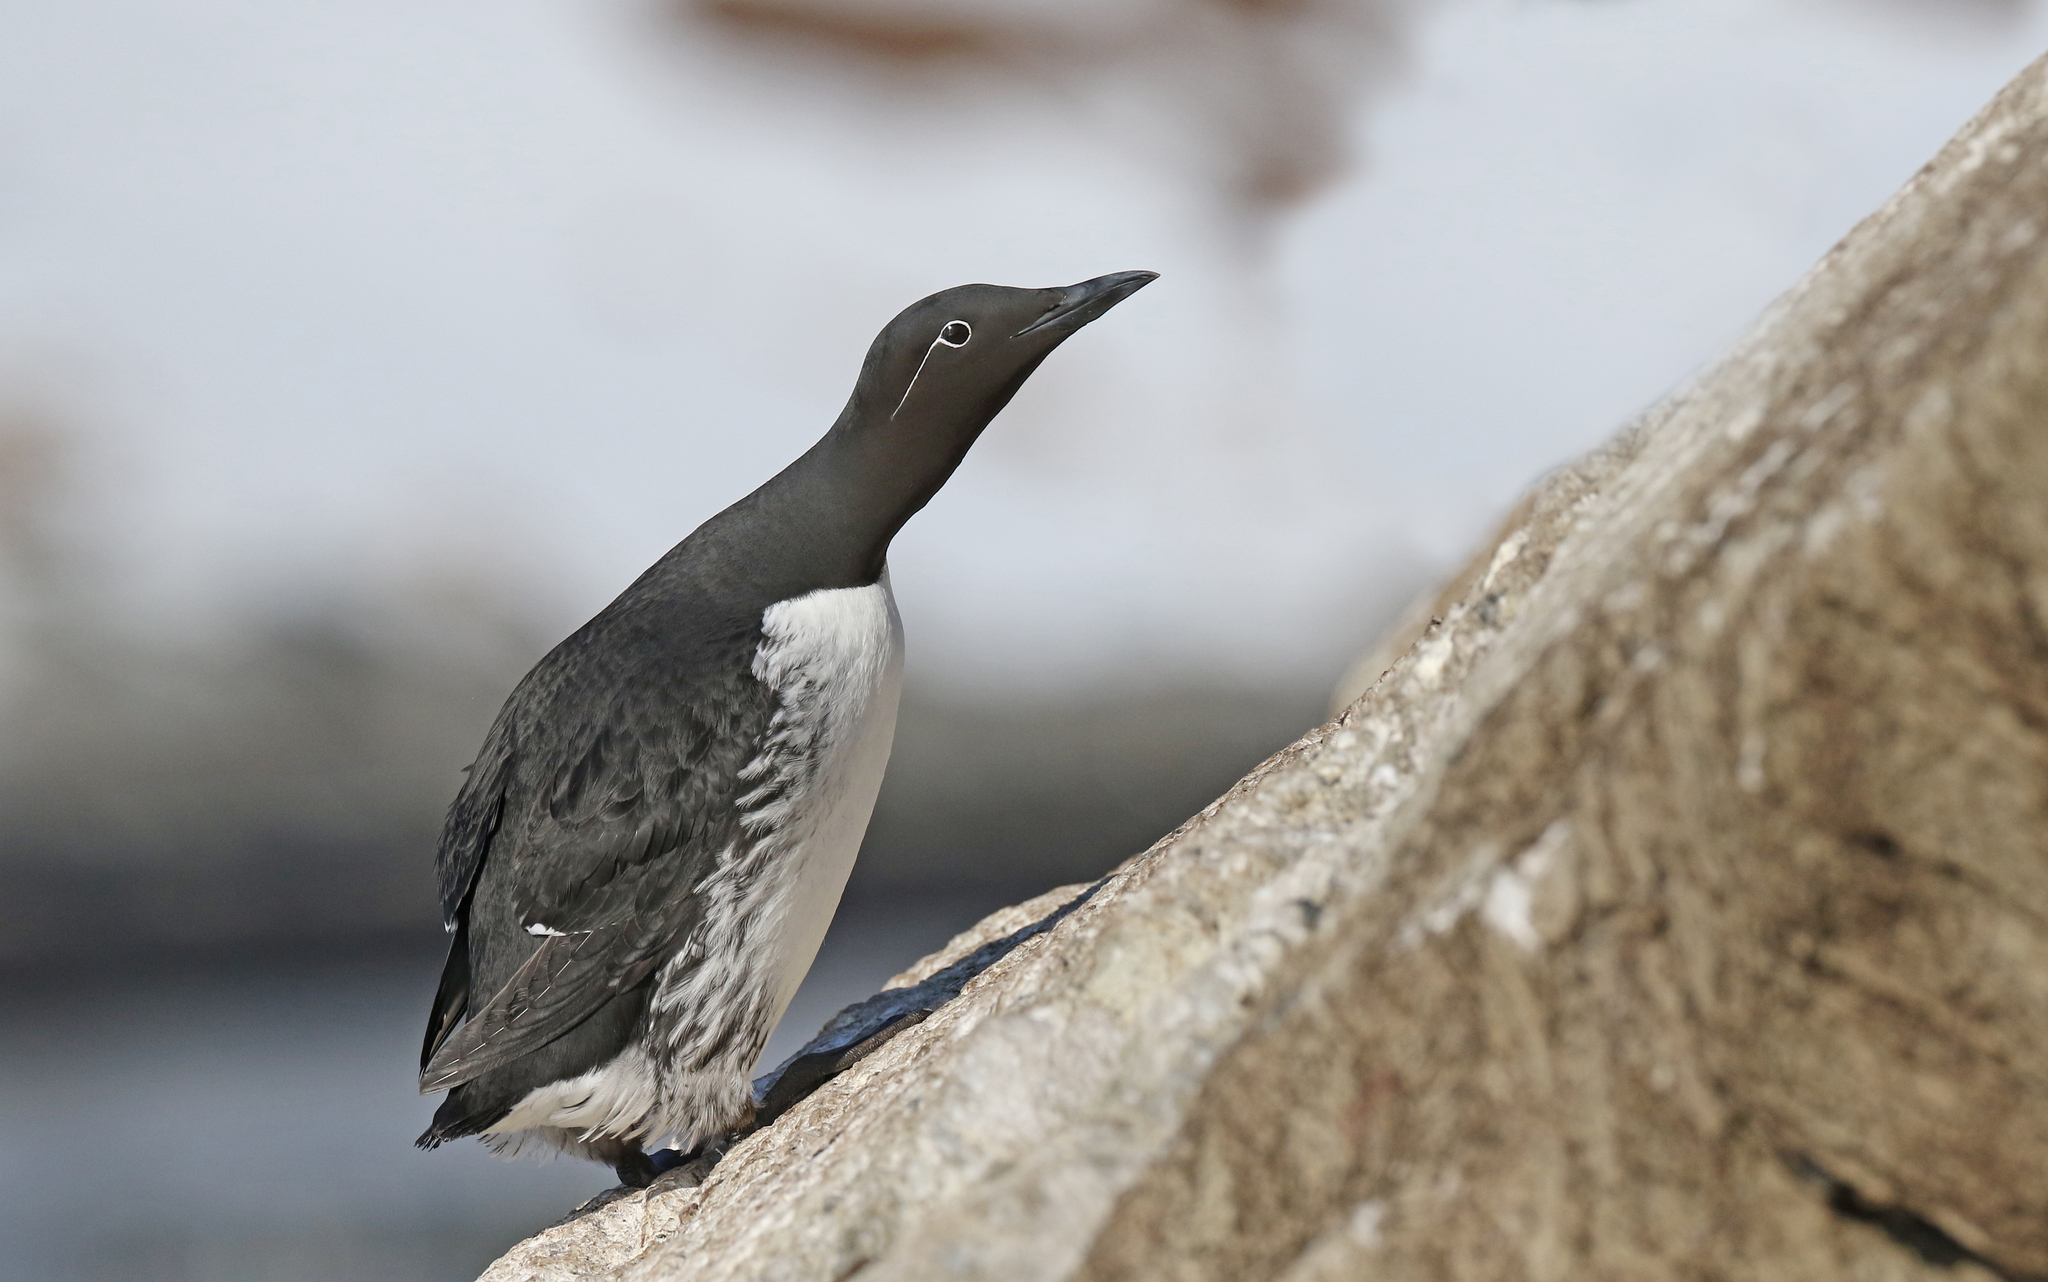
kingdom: Animalia
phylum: Chordata
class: Aves
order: Charadriiformes
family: Alcidae
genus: Uria
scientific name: Uria aalge
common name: Common murre
